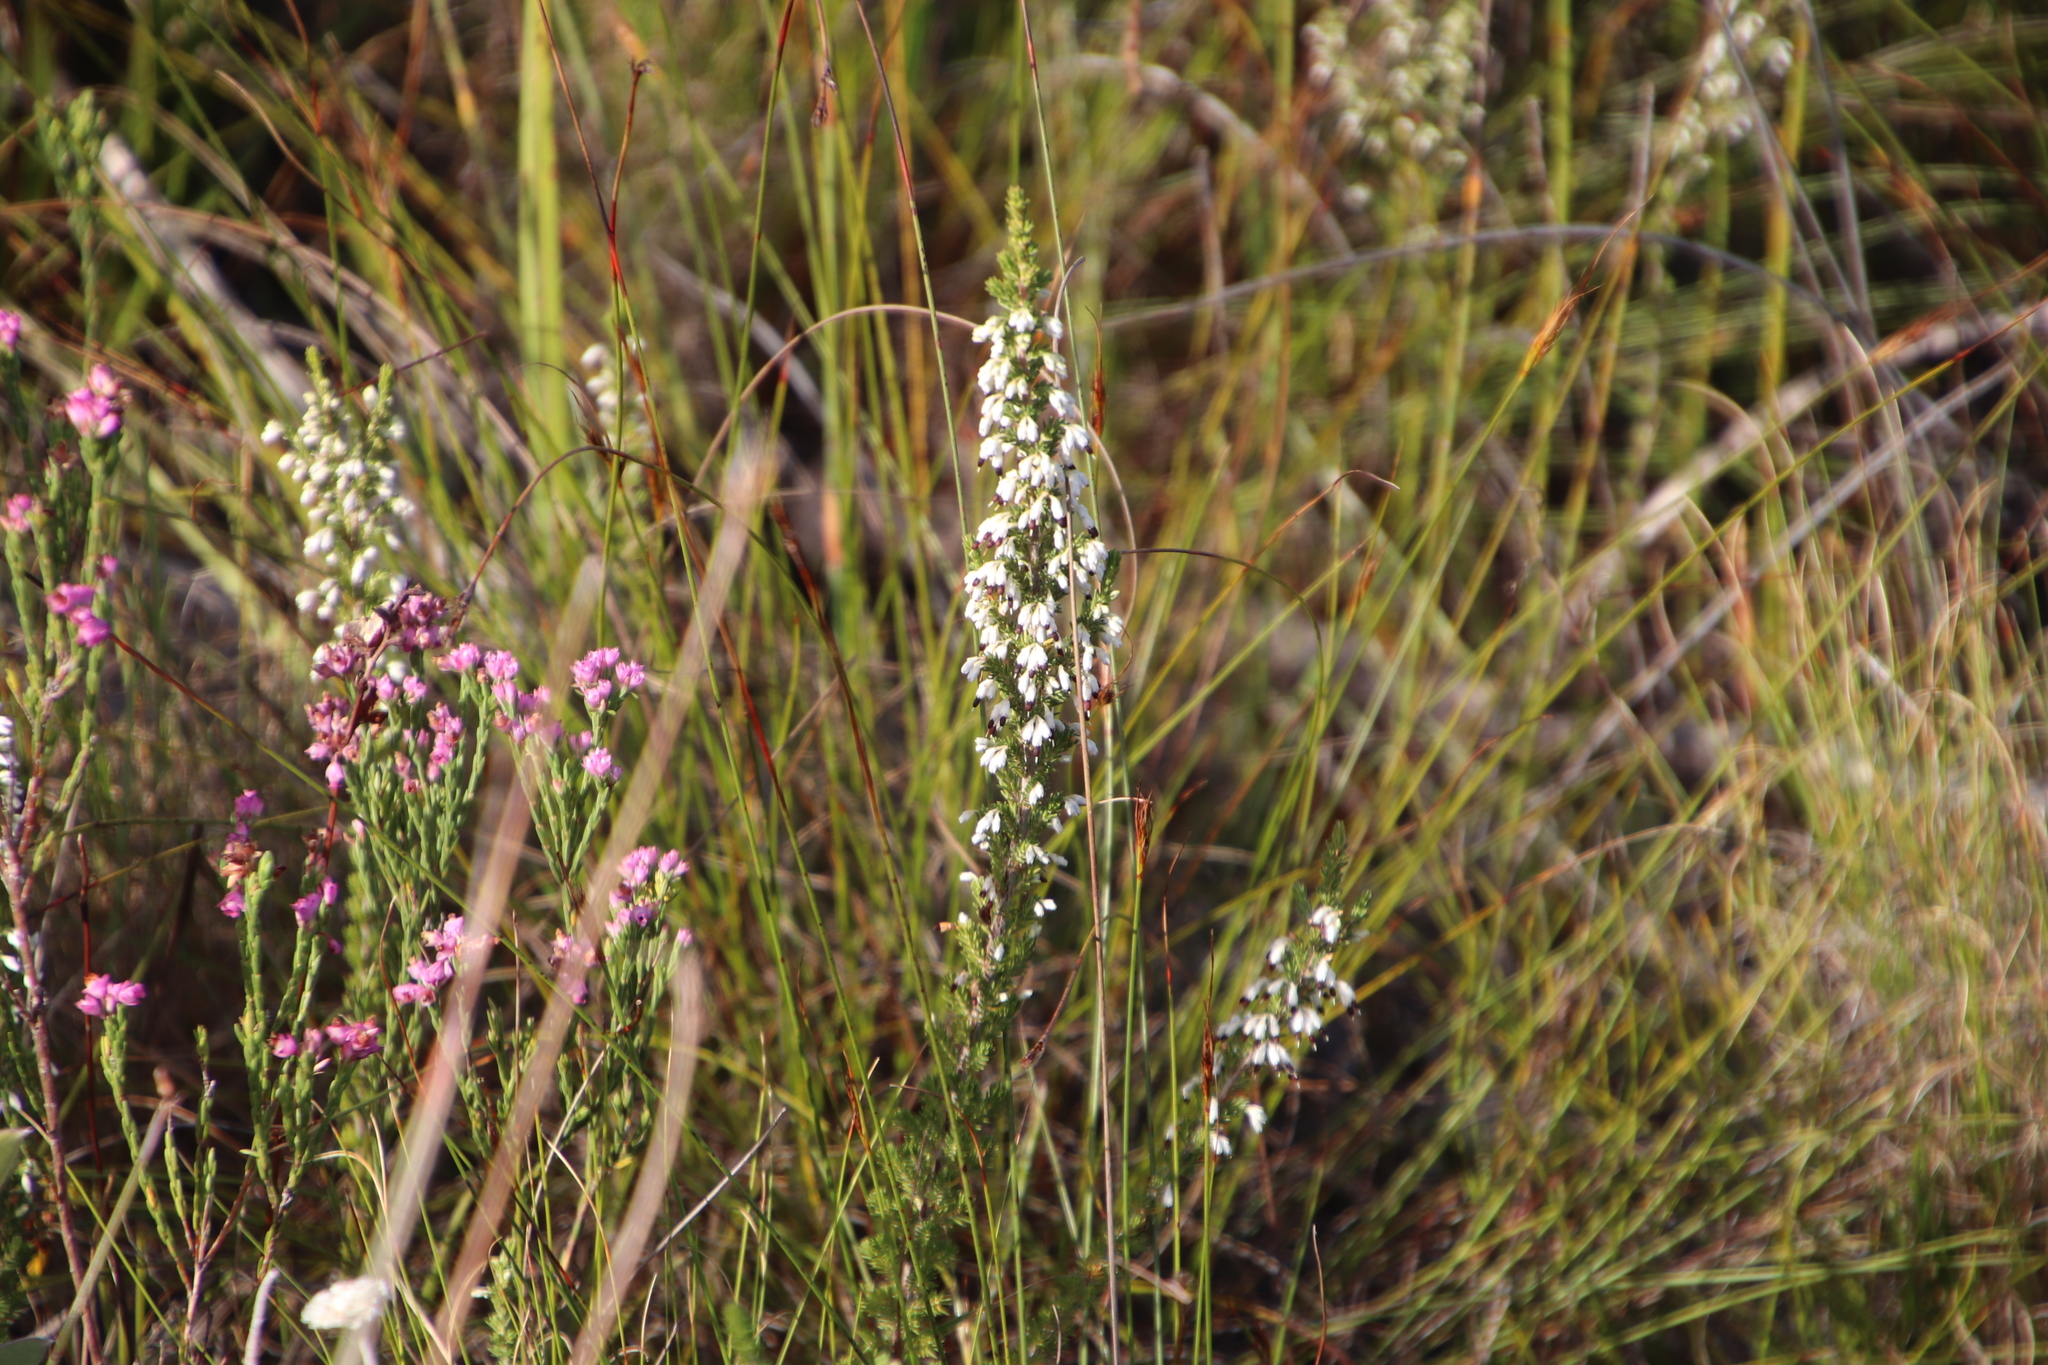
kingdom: Plantae
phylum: Tracheophyta
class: Magnoliopsida
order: Ericales
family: Ericaceae
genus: Erica
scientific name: Erica imbricata
